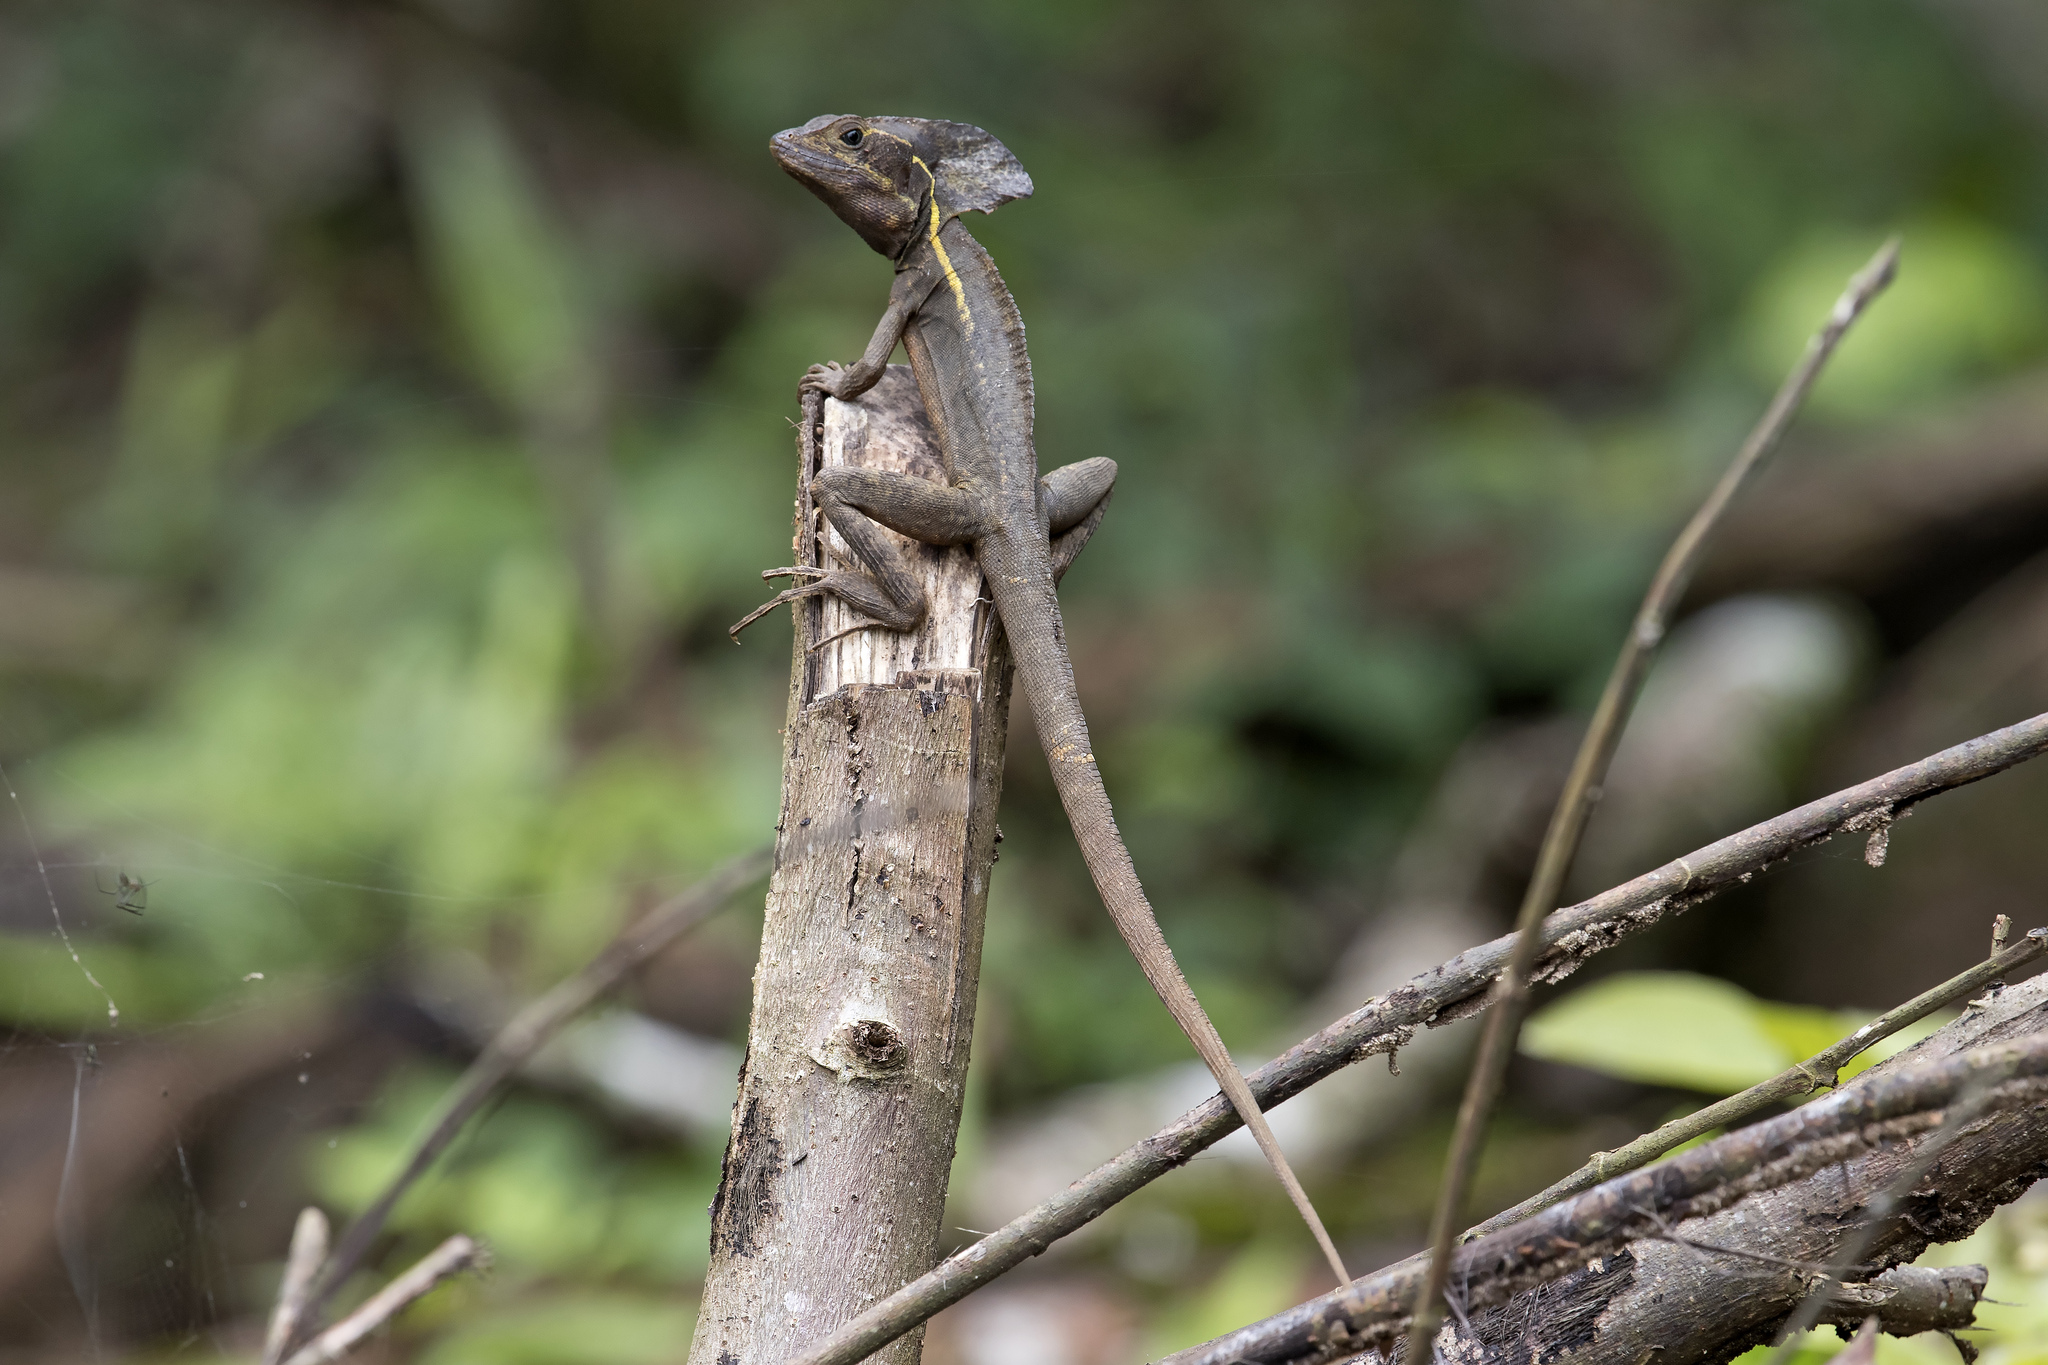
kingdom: Animalia
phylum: Chordata
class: Squamata
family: Corytophanidae
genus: Basiliscus
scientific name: Basiliscus vittatus
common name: Brown basilisk
